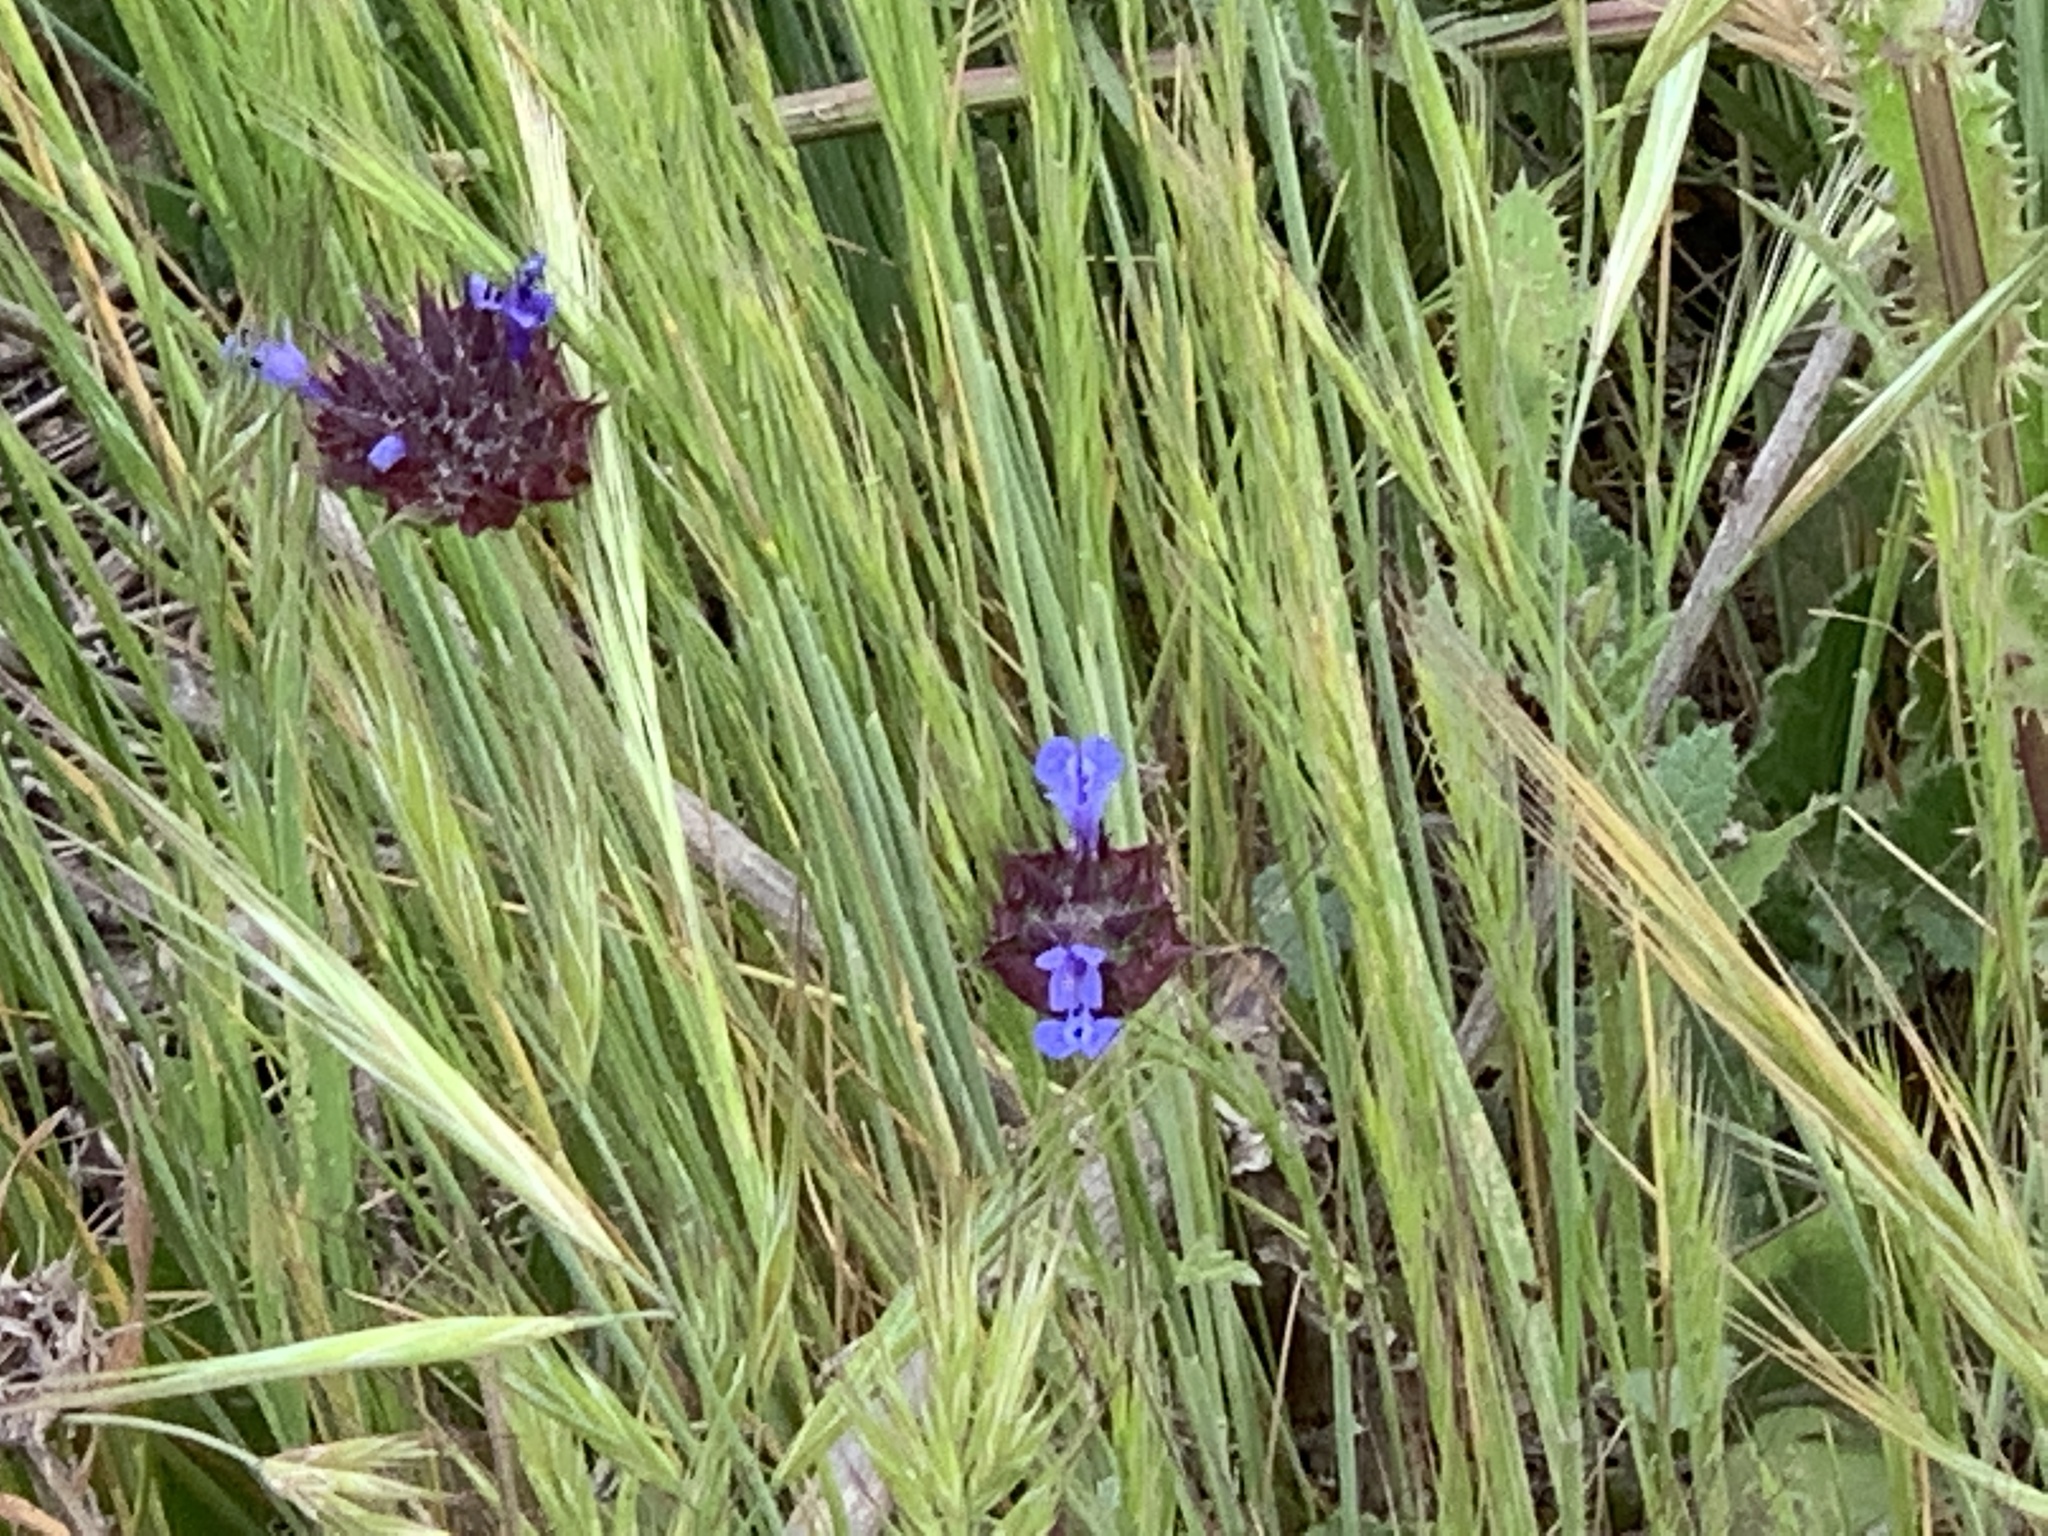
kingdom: Plantae
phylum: Tracheophyta
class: Magnoliopsida
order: Lamiales
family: Lamiaceae
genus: Salvia
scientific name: Salvia columbariae
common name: Chia
